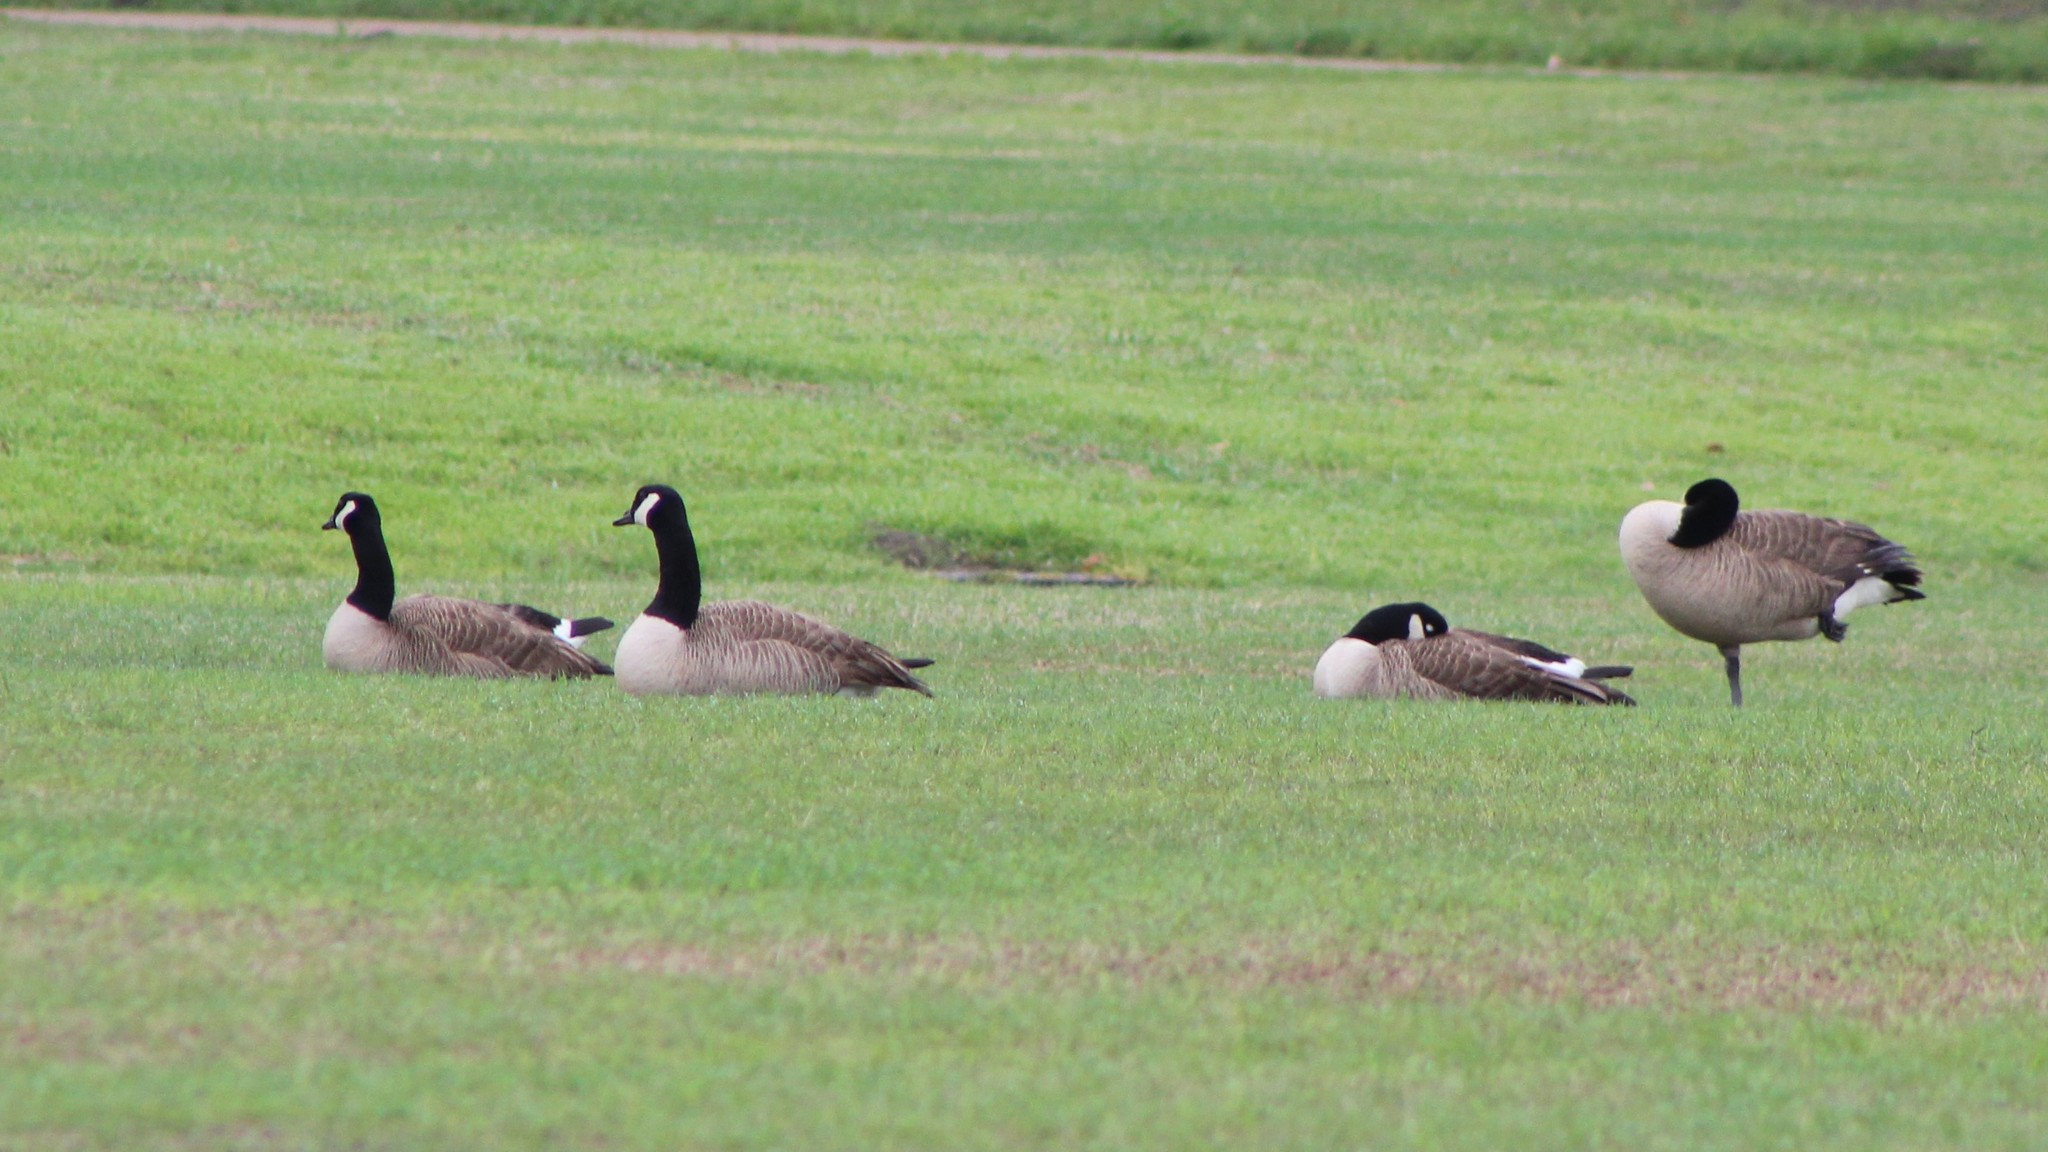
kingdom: Animalia
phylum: Chordata
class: Aves
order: Anseriformes
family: Anatidae
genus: Branta
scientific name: Branta canadensis
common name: Canada goose
